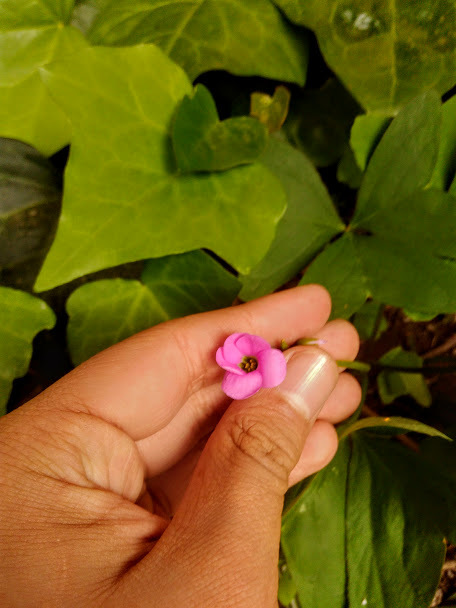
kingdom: Plantae
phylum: Tracheophyta
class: Magnoliopsida
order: Oxalidales
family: Oxalidaceae
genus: Oxalis
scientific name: Oxalis latifolia
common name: Garden pink-sorrel
